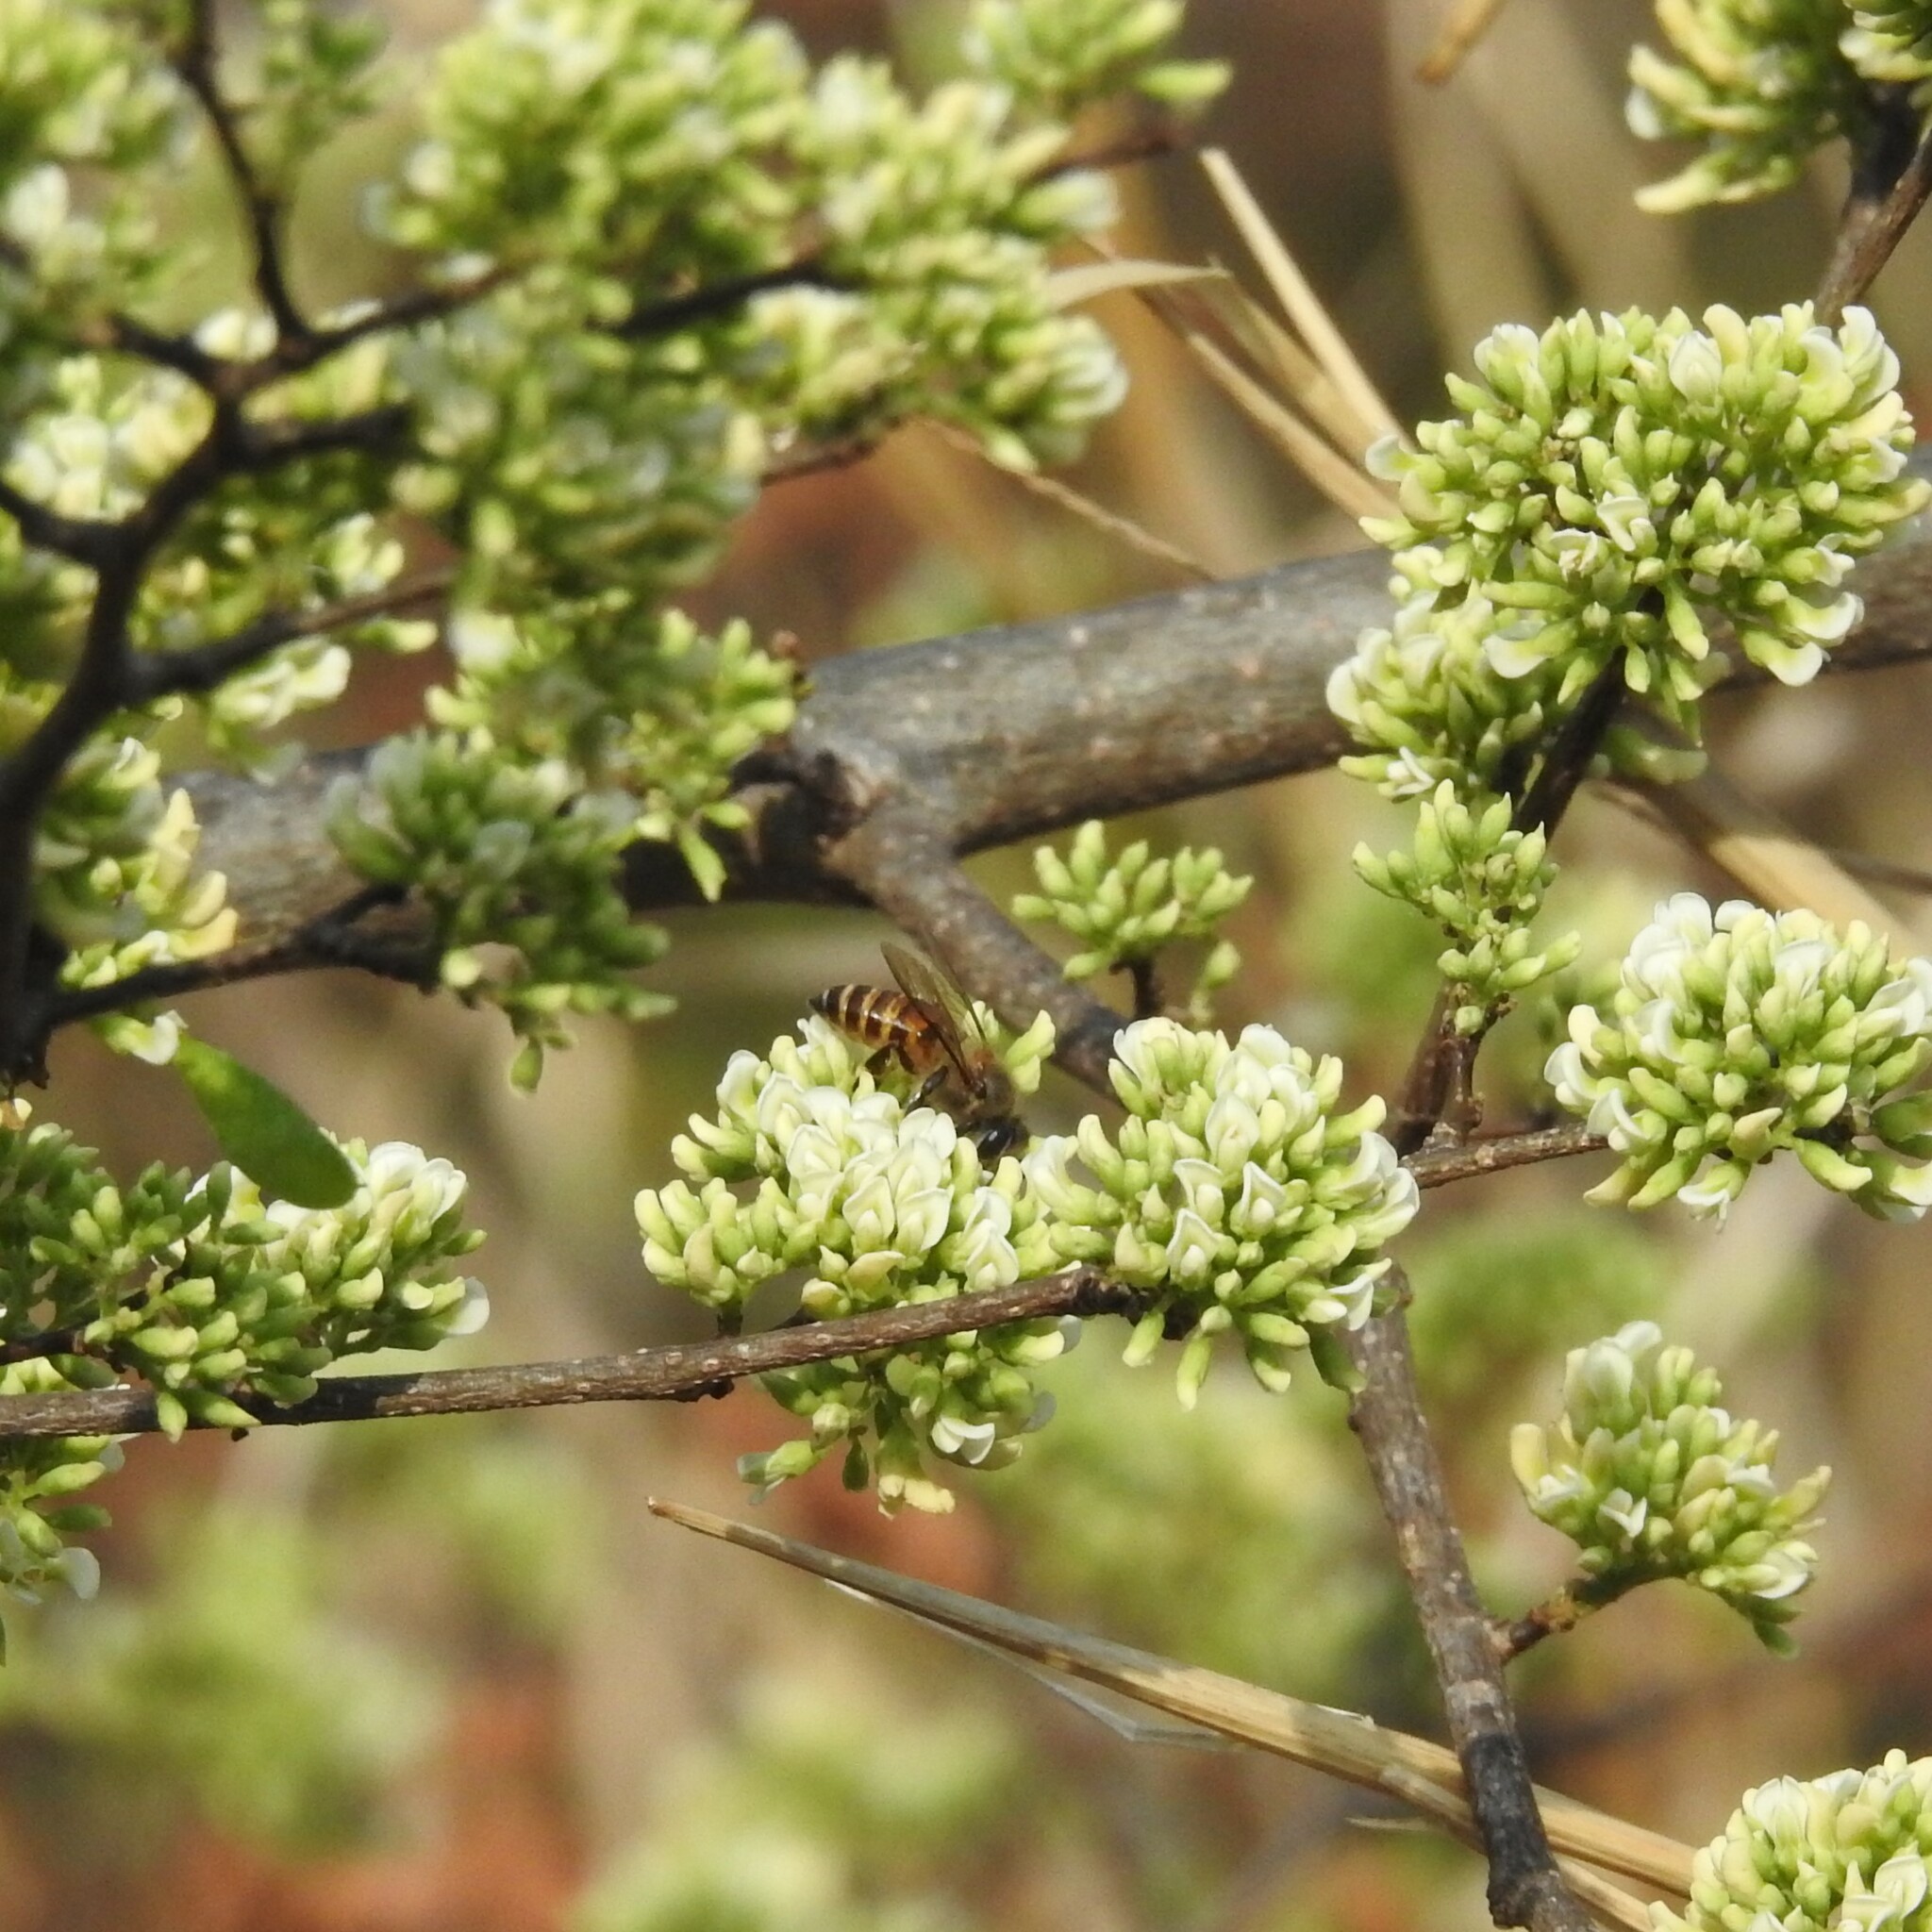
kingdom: Animalia
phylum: Arthropoda
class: Insecta
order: Hymenoptera
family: Apidae
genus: Apis
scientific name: Apis cerana
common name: Honey bee
